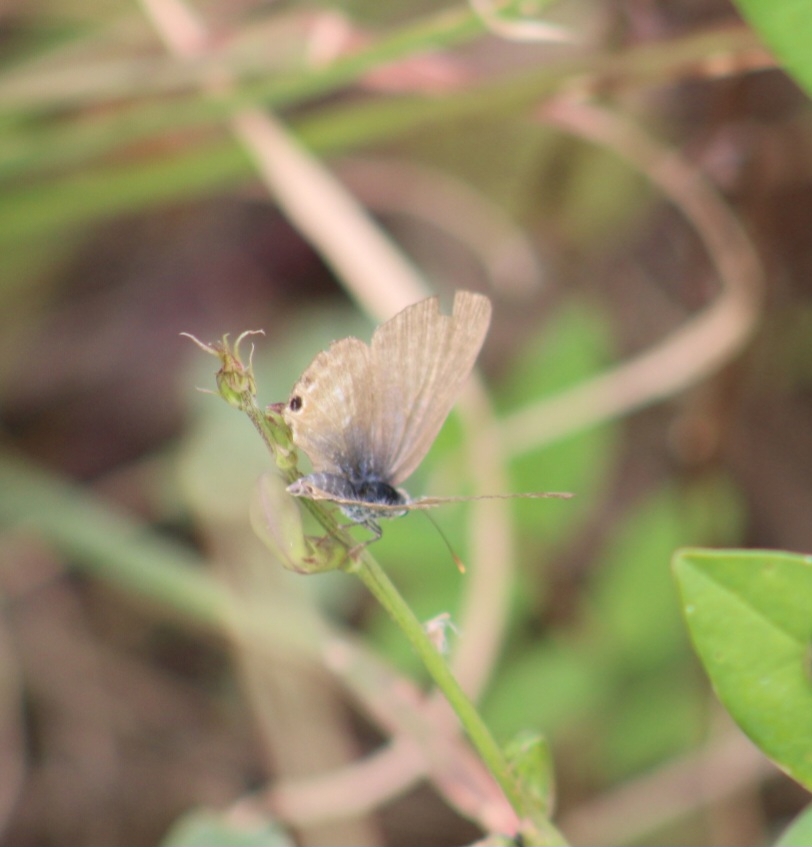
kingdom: Animalia
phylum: Arthropoda
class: Insecta
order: Lepidoptera
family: Lycaenidae
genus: Lampides
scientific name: Lampides boeticus
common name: Long-tailed blue
